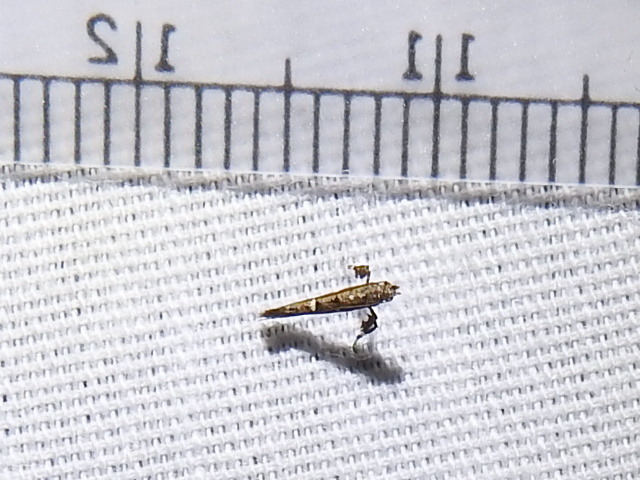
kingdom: Animalia
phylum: Arthropoda
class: Insecta
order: Lepidoptera
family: Gracillariidae
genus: Caloptilia
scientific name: Caloptilia triadicae
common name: Tallow leaf roller
